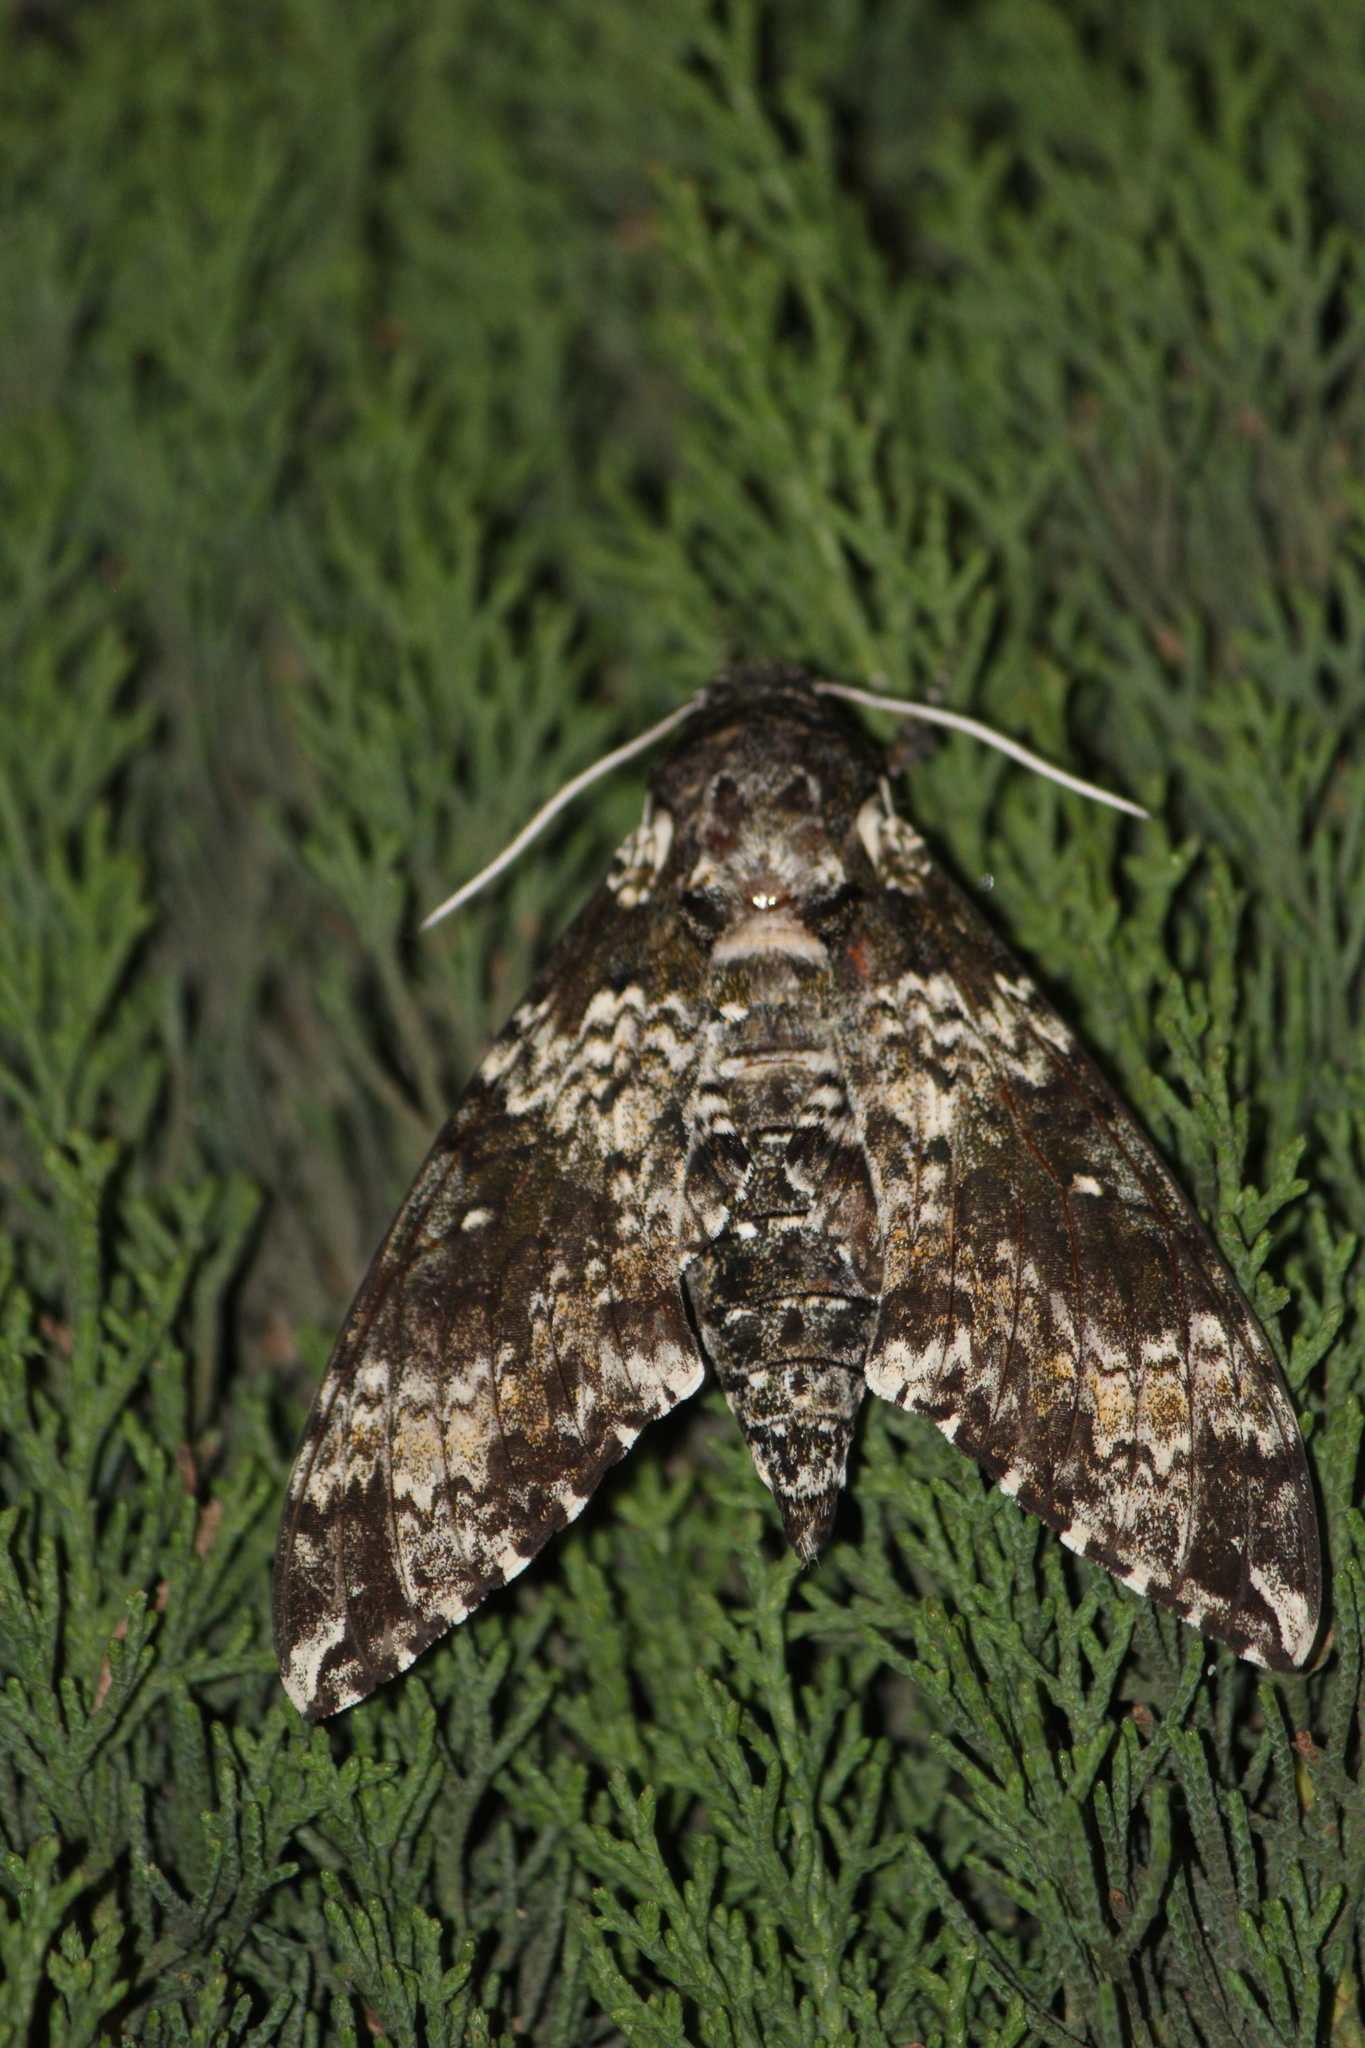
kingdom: Animalia
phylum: Arthropoda
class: Insecta
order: Lepidoptera
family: Sphingidae
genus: Manduca
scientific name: Manduca rustica
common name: Rustic sphinx
